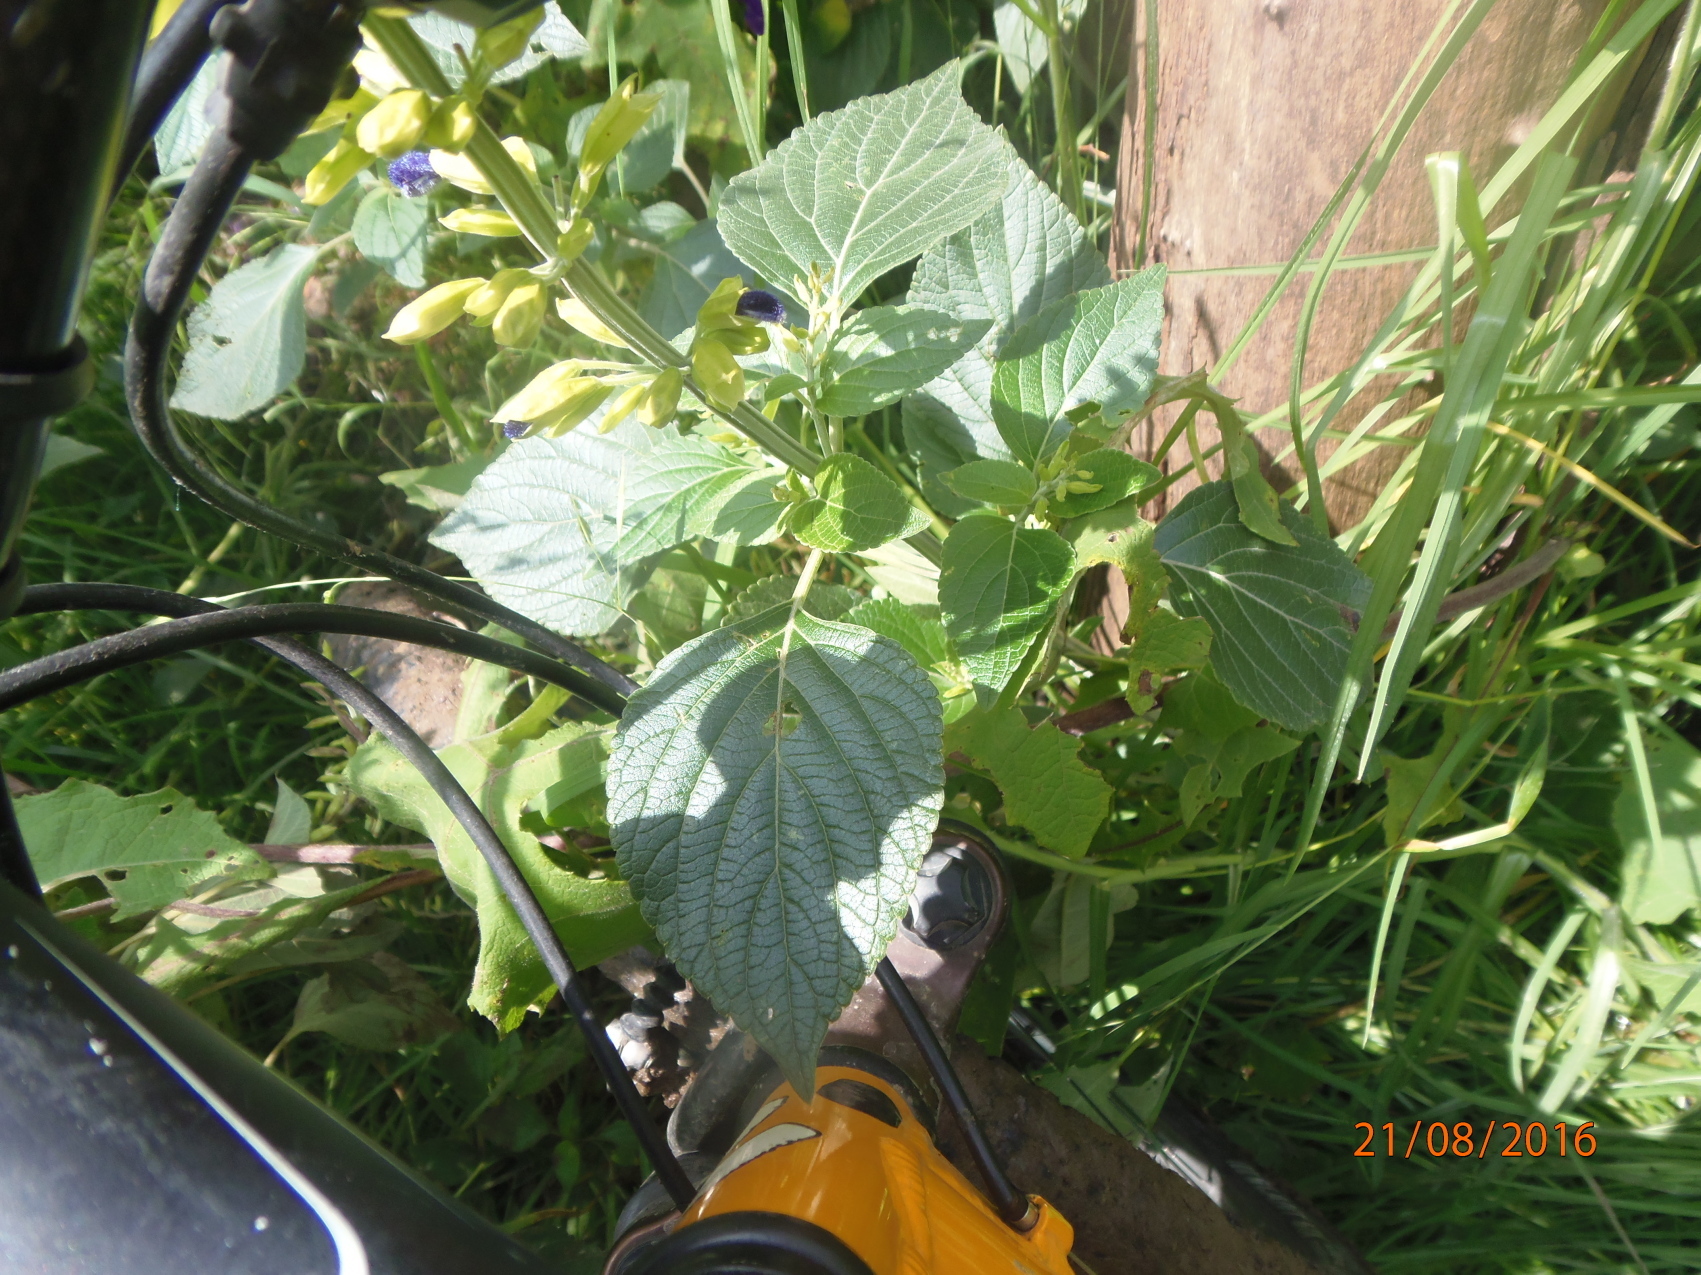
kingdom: Plantae
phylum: Tracheophyta
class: Magnoliopsida
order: Lamiales
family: Lamiaceae
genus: Salvia
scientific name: Salvia mexicana
